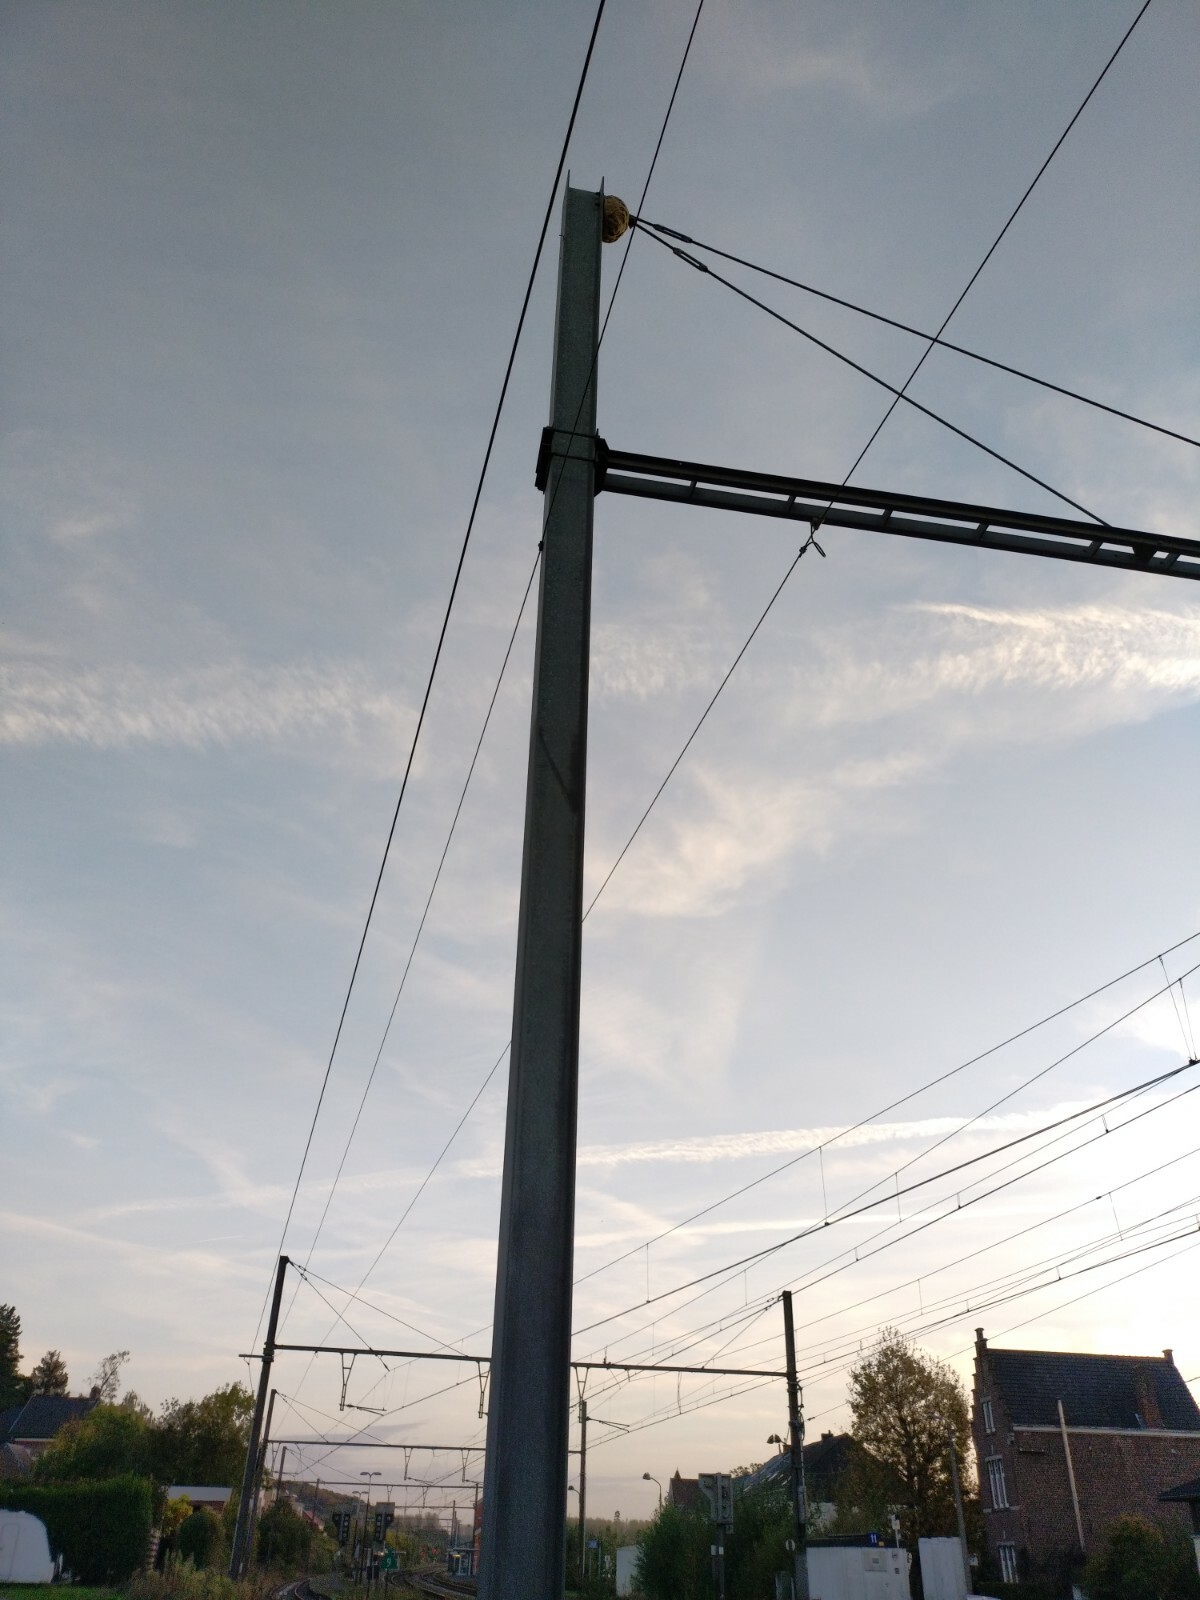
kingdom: Animalia
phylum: Arthropoda
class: Insecta
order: Hymenoptera
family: Vespidae
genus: Vespa
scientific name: Vespa velutina
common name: Asian hornet
